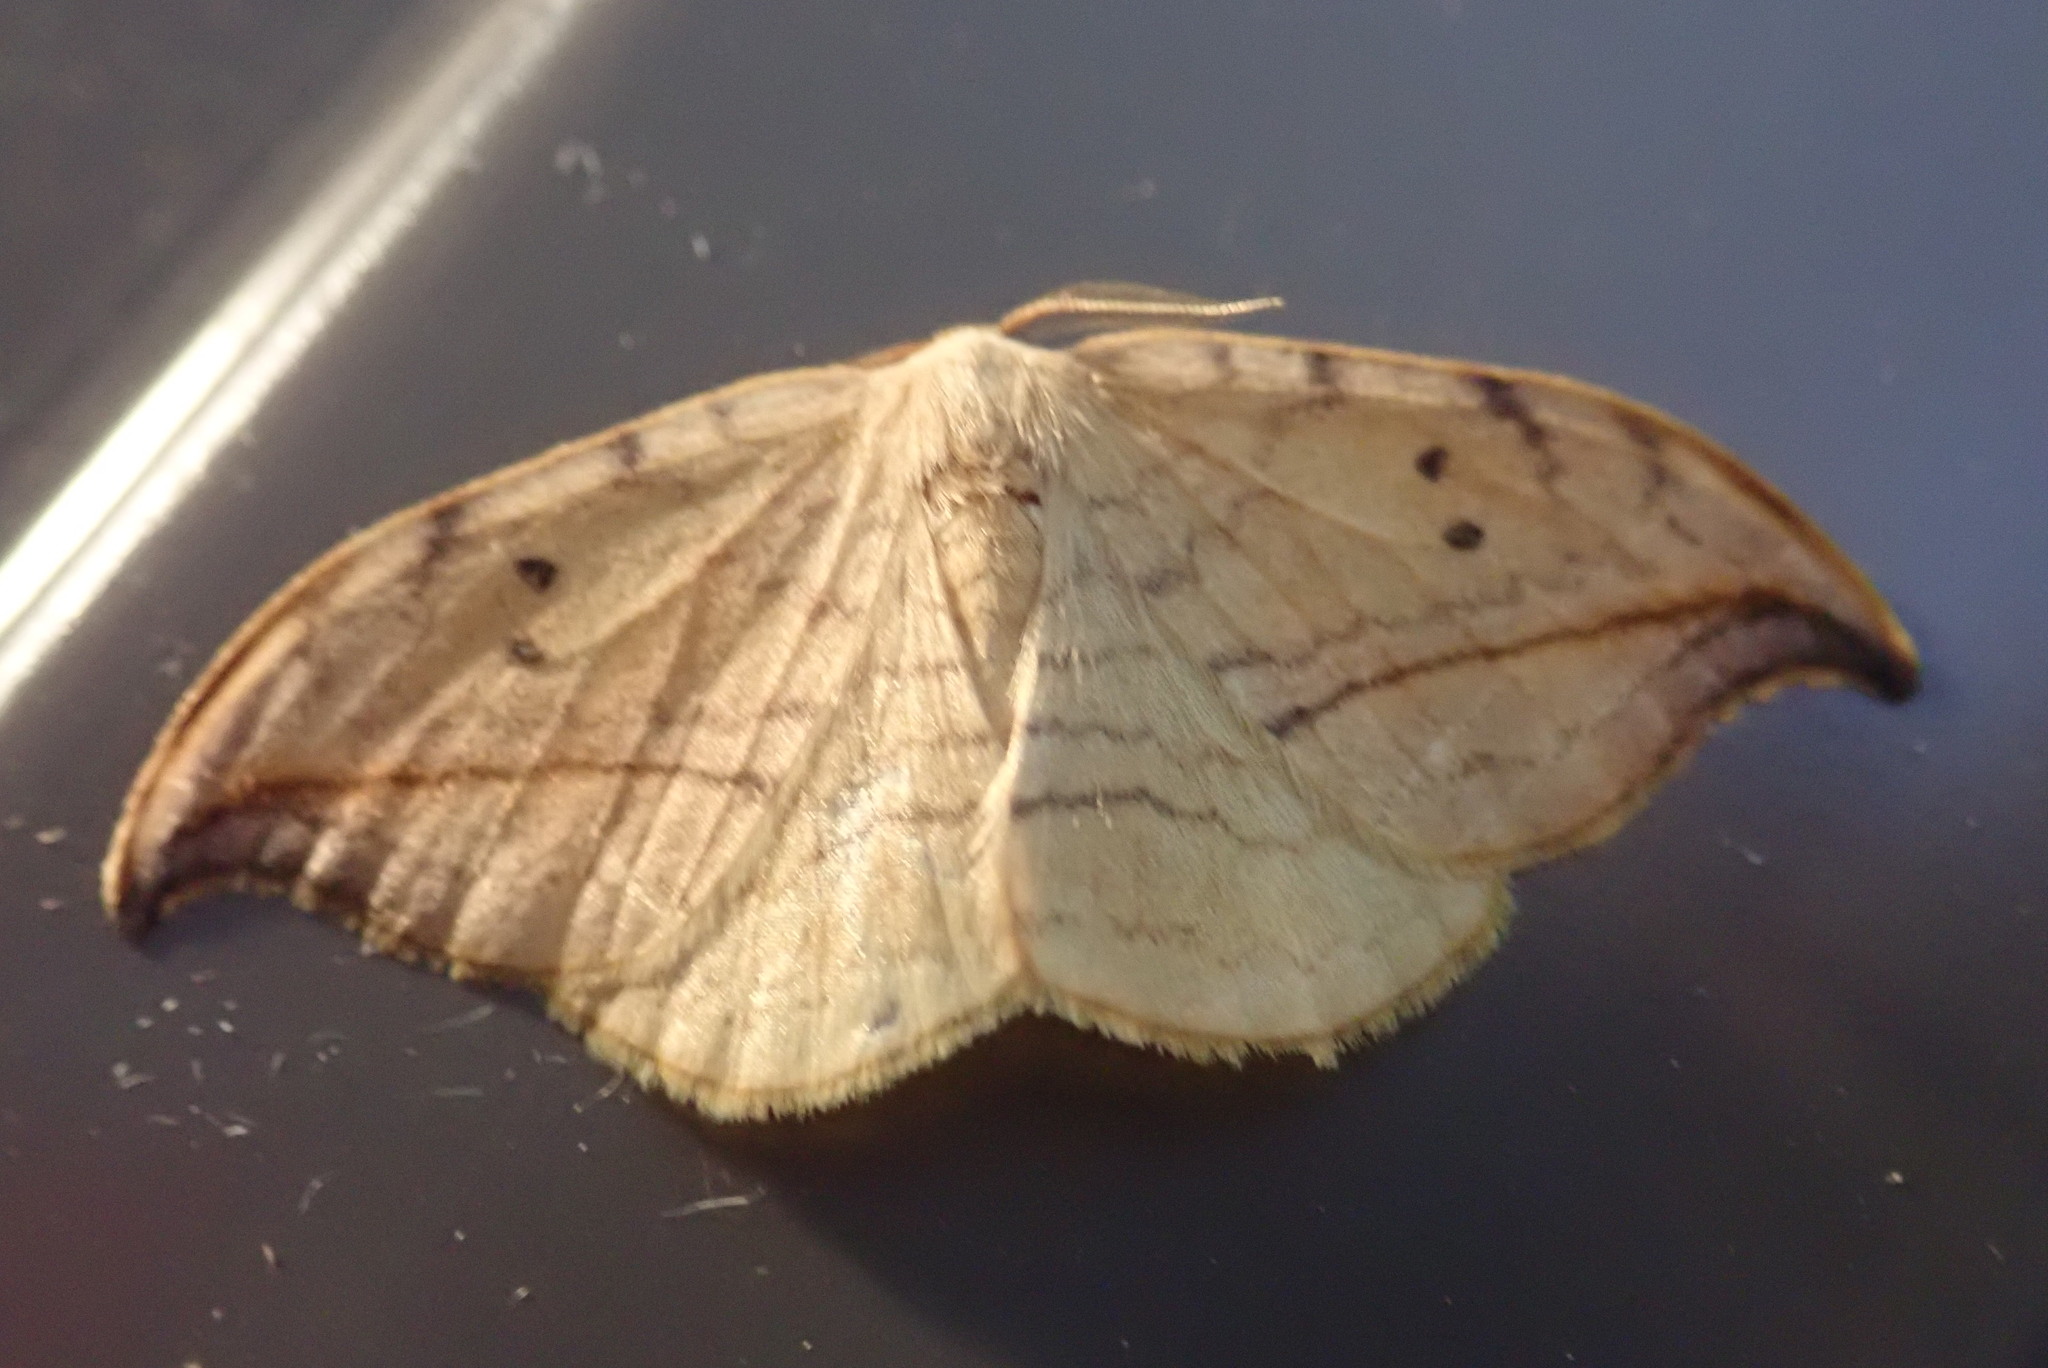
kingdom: Animalia
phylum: Arthropoda
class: Insecta
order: Lepidoptera
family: Drepanidae
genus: Drepana
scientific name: Drepana arcuata
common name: Arched hooktip moth
